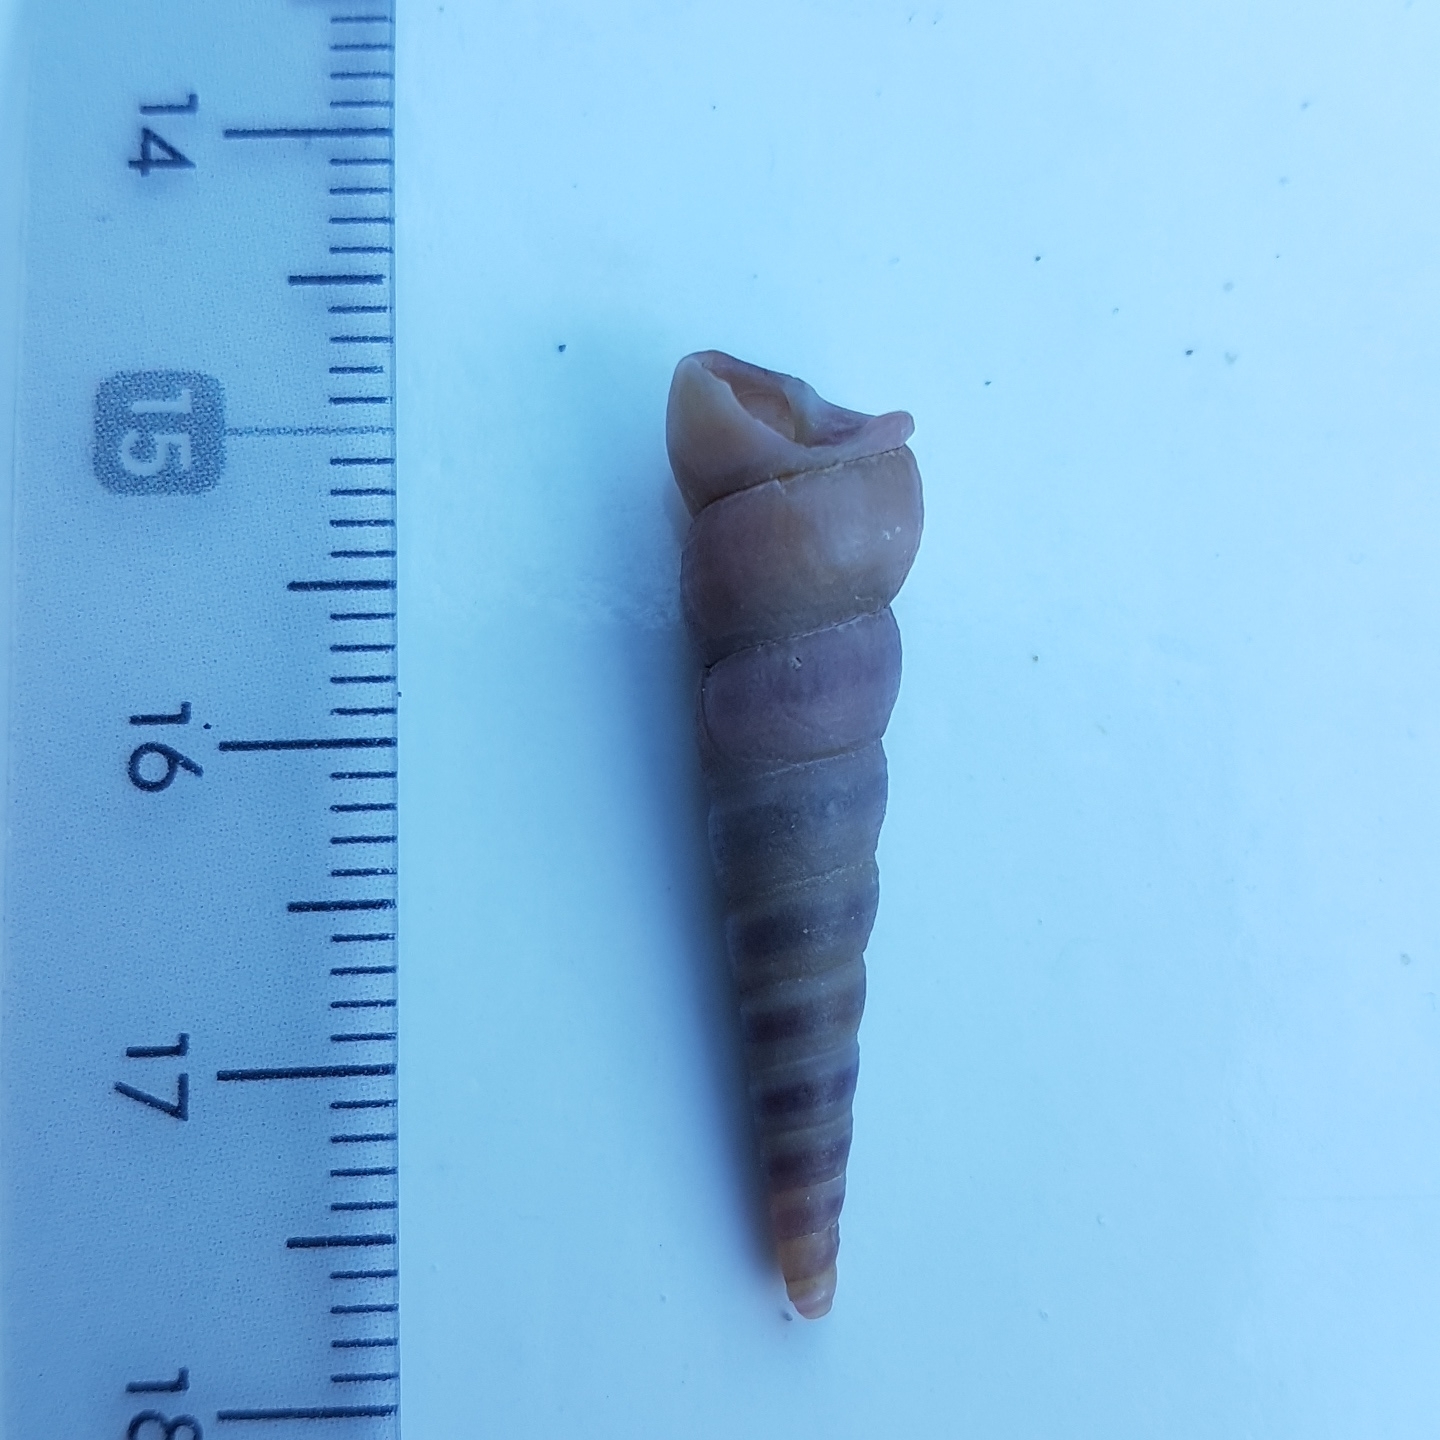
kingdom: Animalia
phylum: Mollusca
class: Gastropoda
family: Turritellidae
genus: Turritellinella
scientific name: Turritellinella tricarinata
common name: Auger shell
